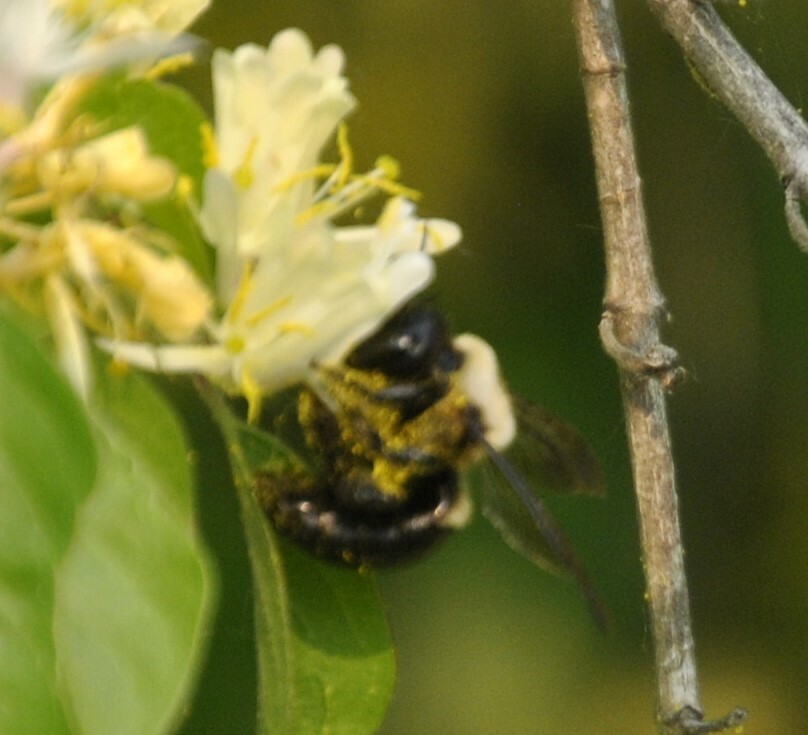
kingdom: Animalia
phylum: Arthropoda
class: Insecta
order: Hymenoptera
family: Apidae
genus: Xylocopa
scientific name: Xylocopa virginica
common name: Carpenter bee
